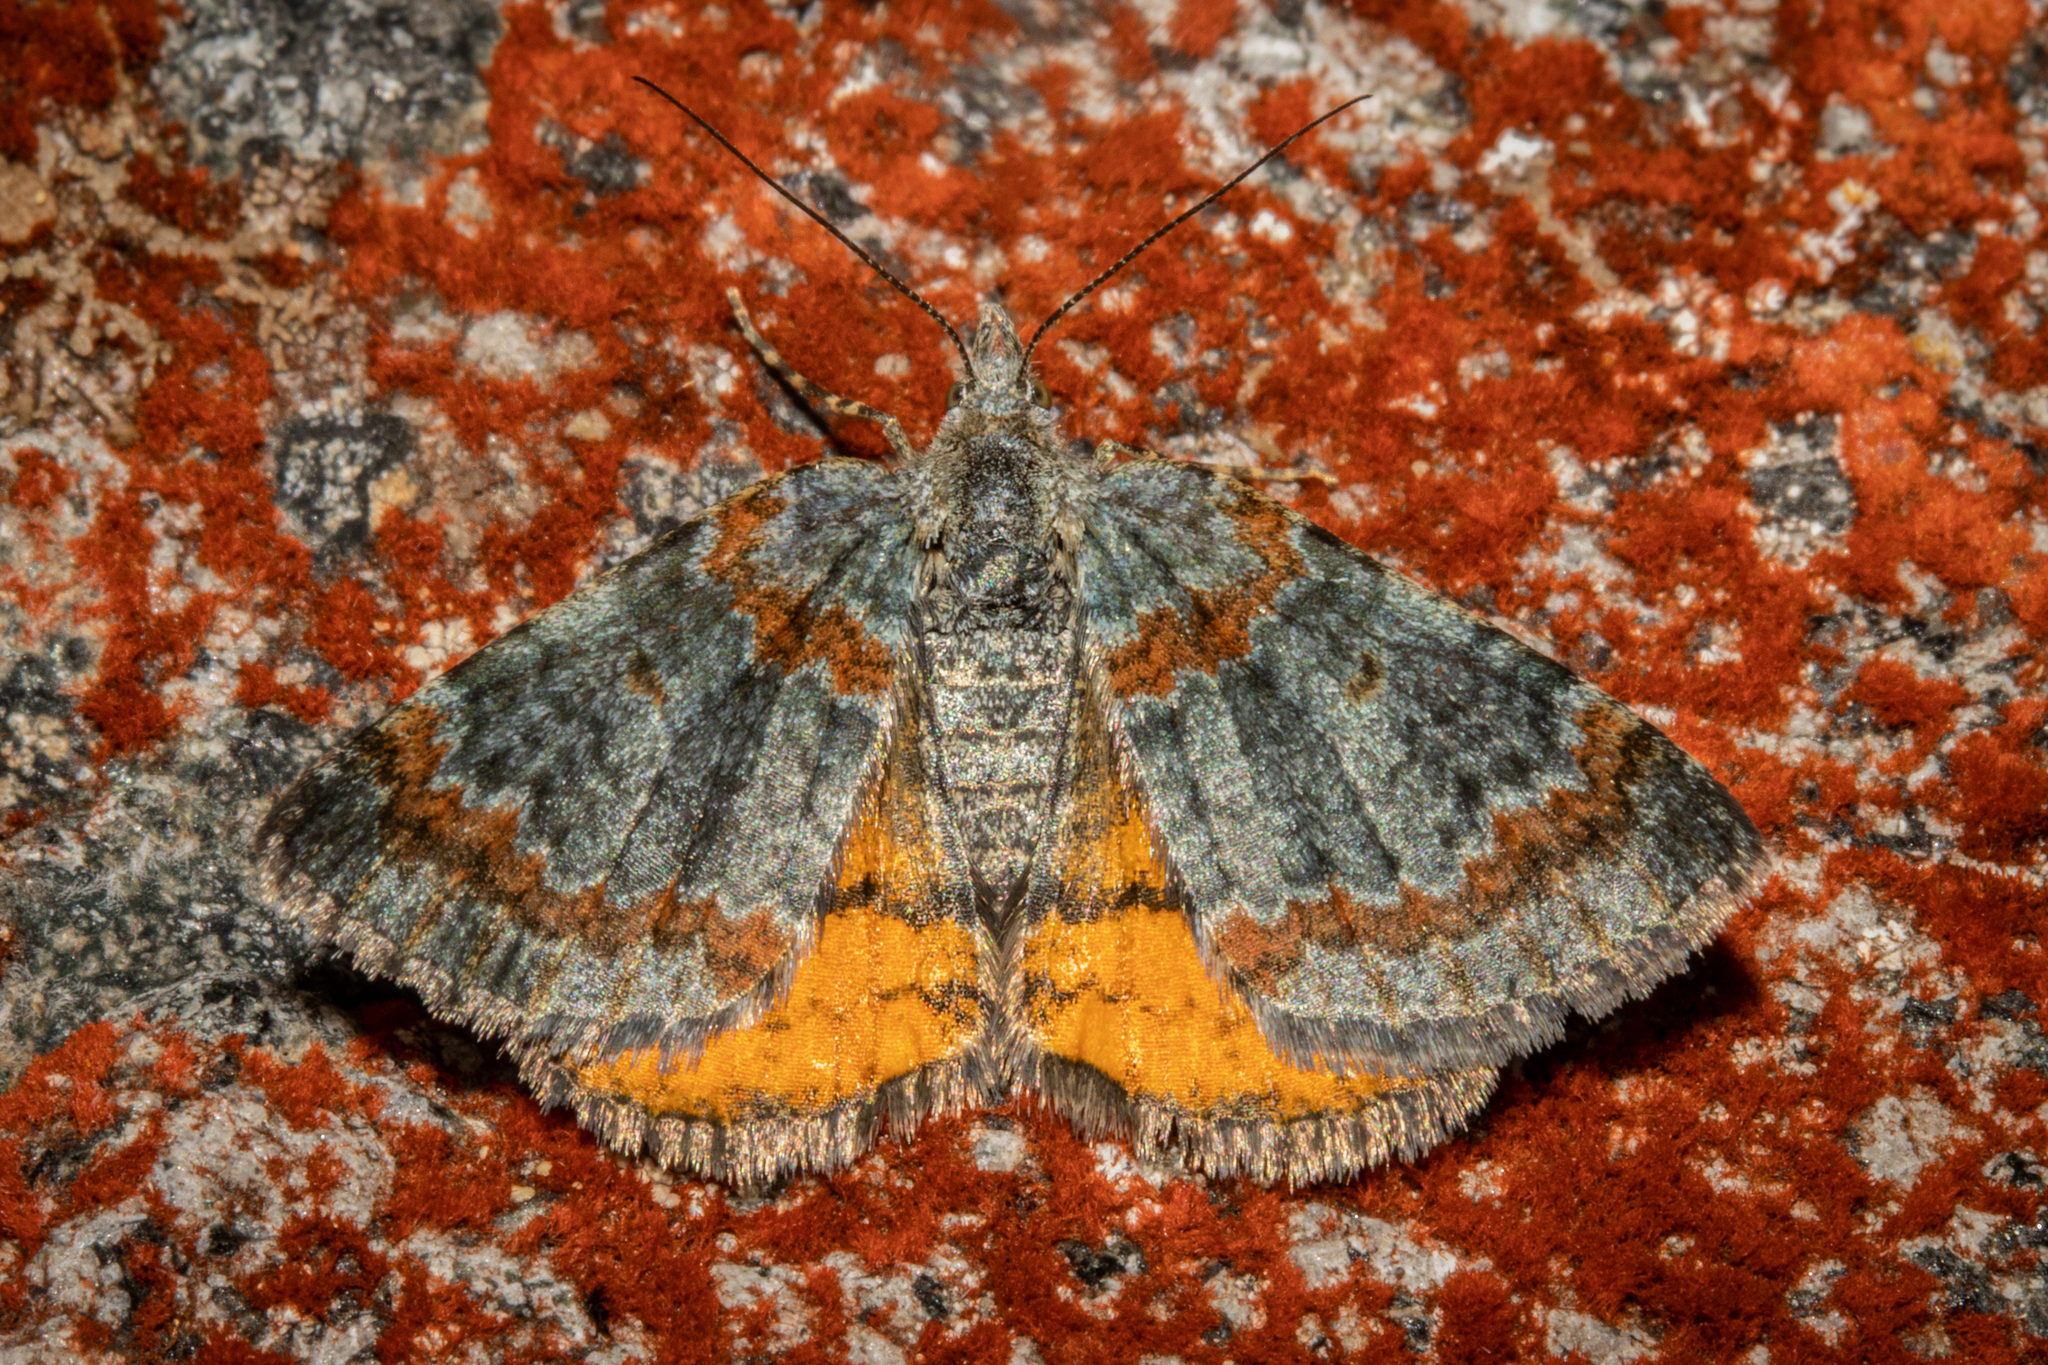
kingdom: Animalia
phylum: Arthropoda
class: Insecta
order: Lepidoptera
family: Geometridae
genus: Paranotoreas
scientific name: Paranotoreas zopyra
